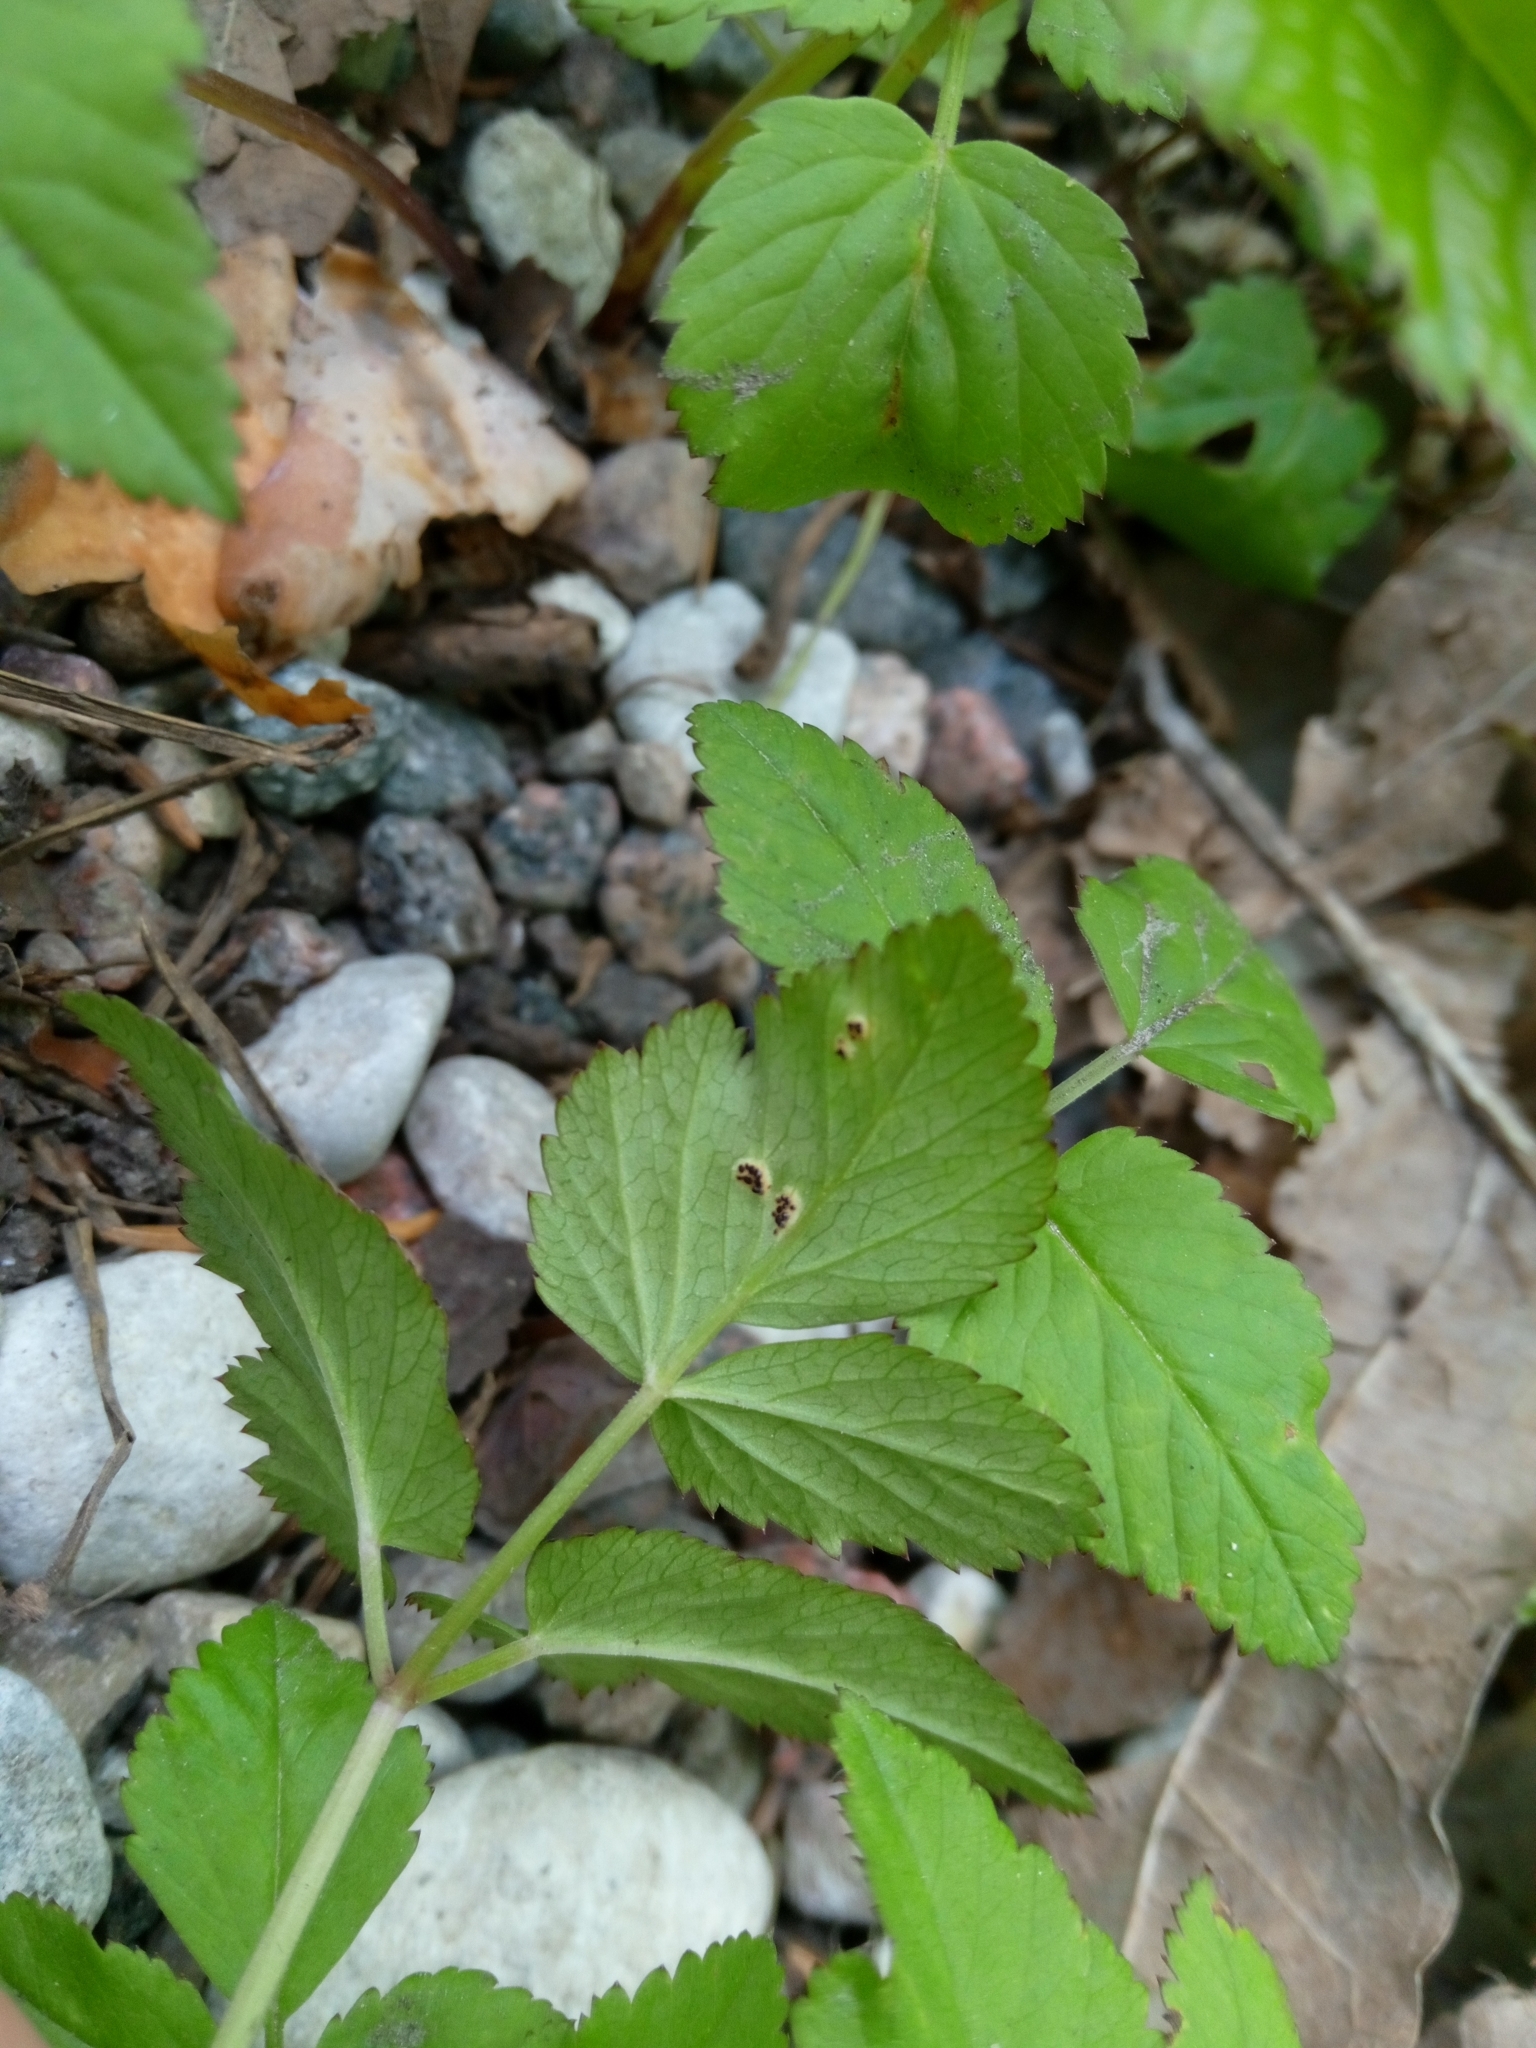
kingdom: Plantae
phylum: Tracheophyta
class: Magnoliopsida
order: Apiales
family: Apiaceae
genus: Aegopodium
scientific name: Aegopodium podagraria
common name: Ground-elder
